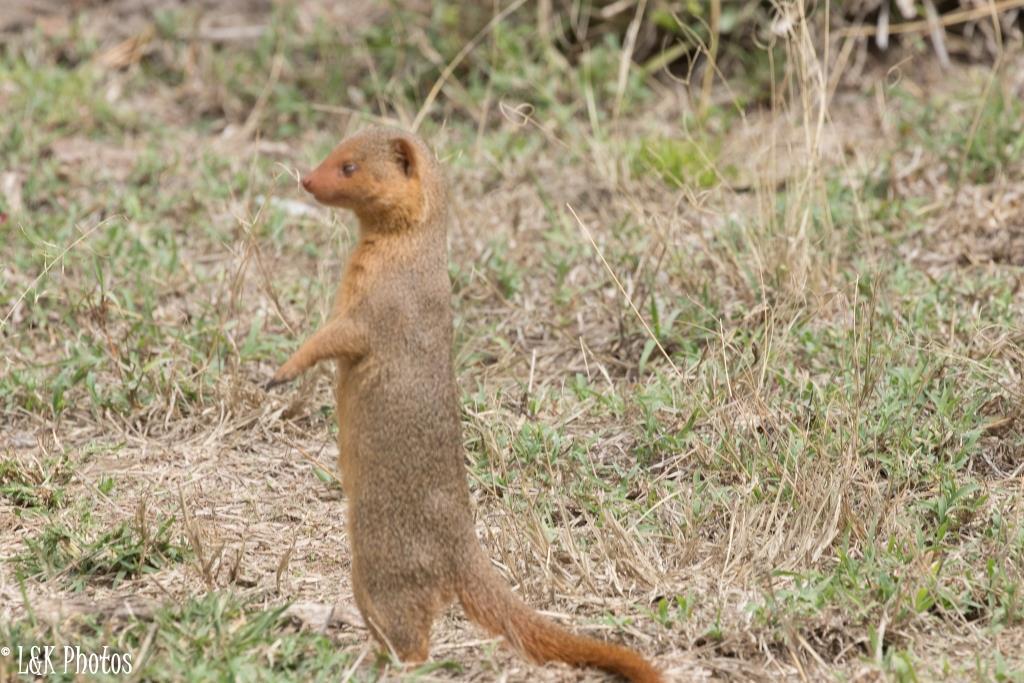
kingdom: Animalia
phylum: Chordata
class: Mammalia
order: Carnivora
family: Herpestidae
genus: Helogale
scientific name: Helogale parvula
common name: Common dwarf mongoose
